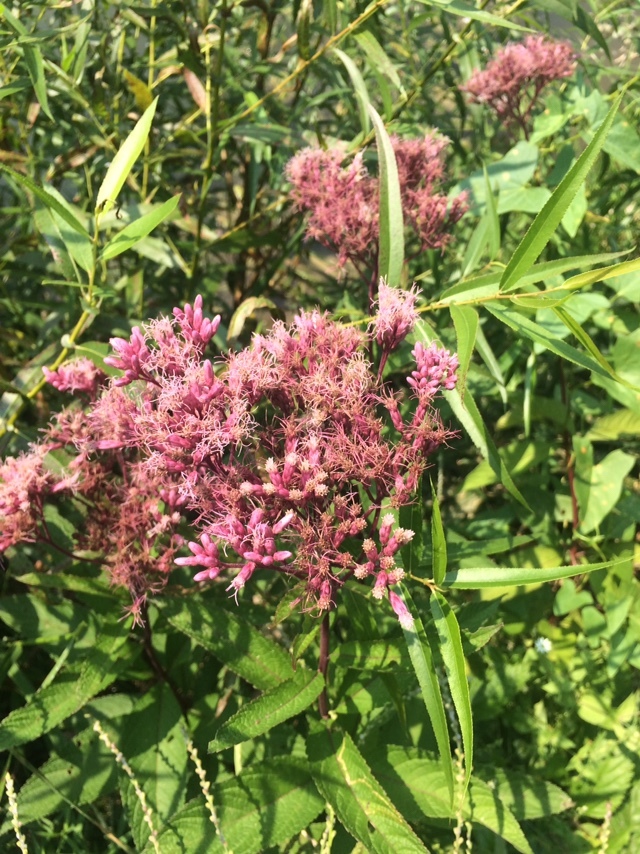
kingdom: Plantae
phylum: Tracheophyta
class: Magnoliopsida
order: Asterales
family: Asteraceae
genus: Eutrochium
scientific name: Eutrochium maculatum
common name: Spotted joe pye weed
